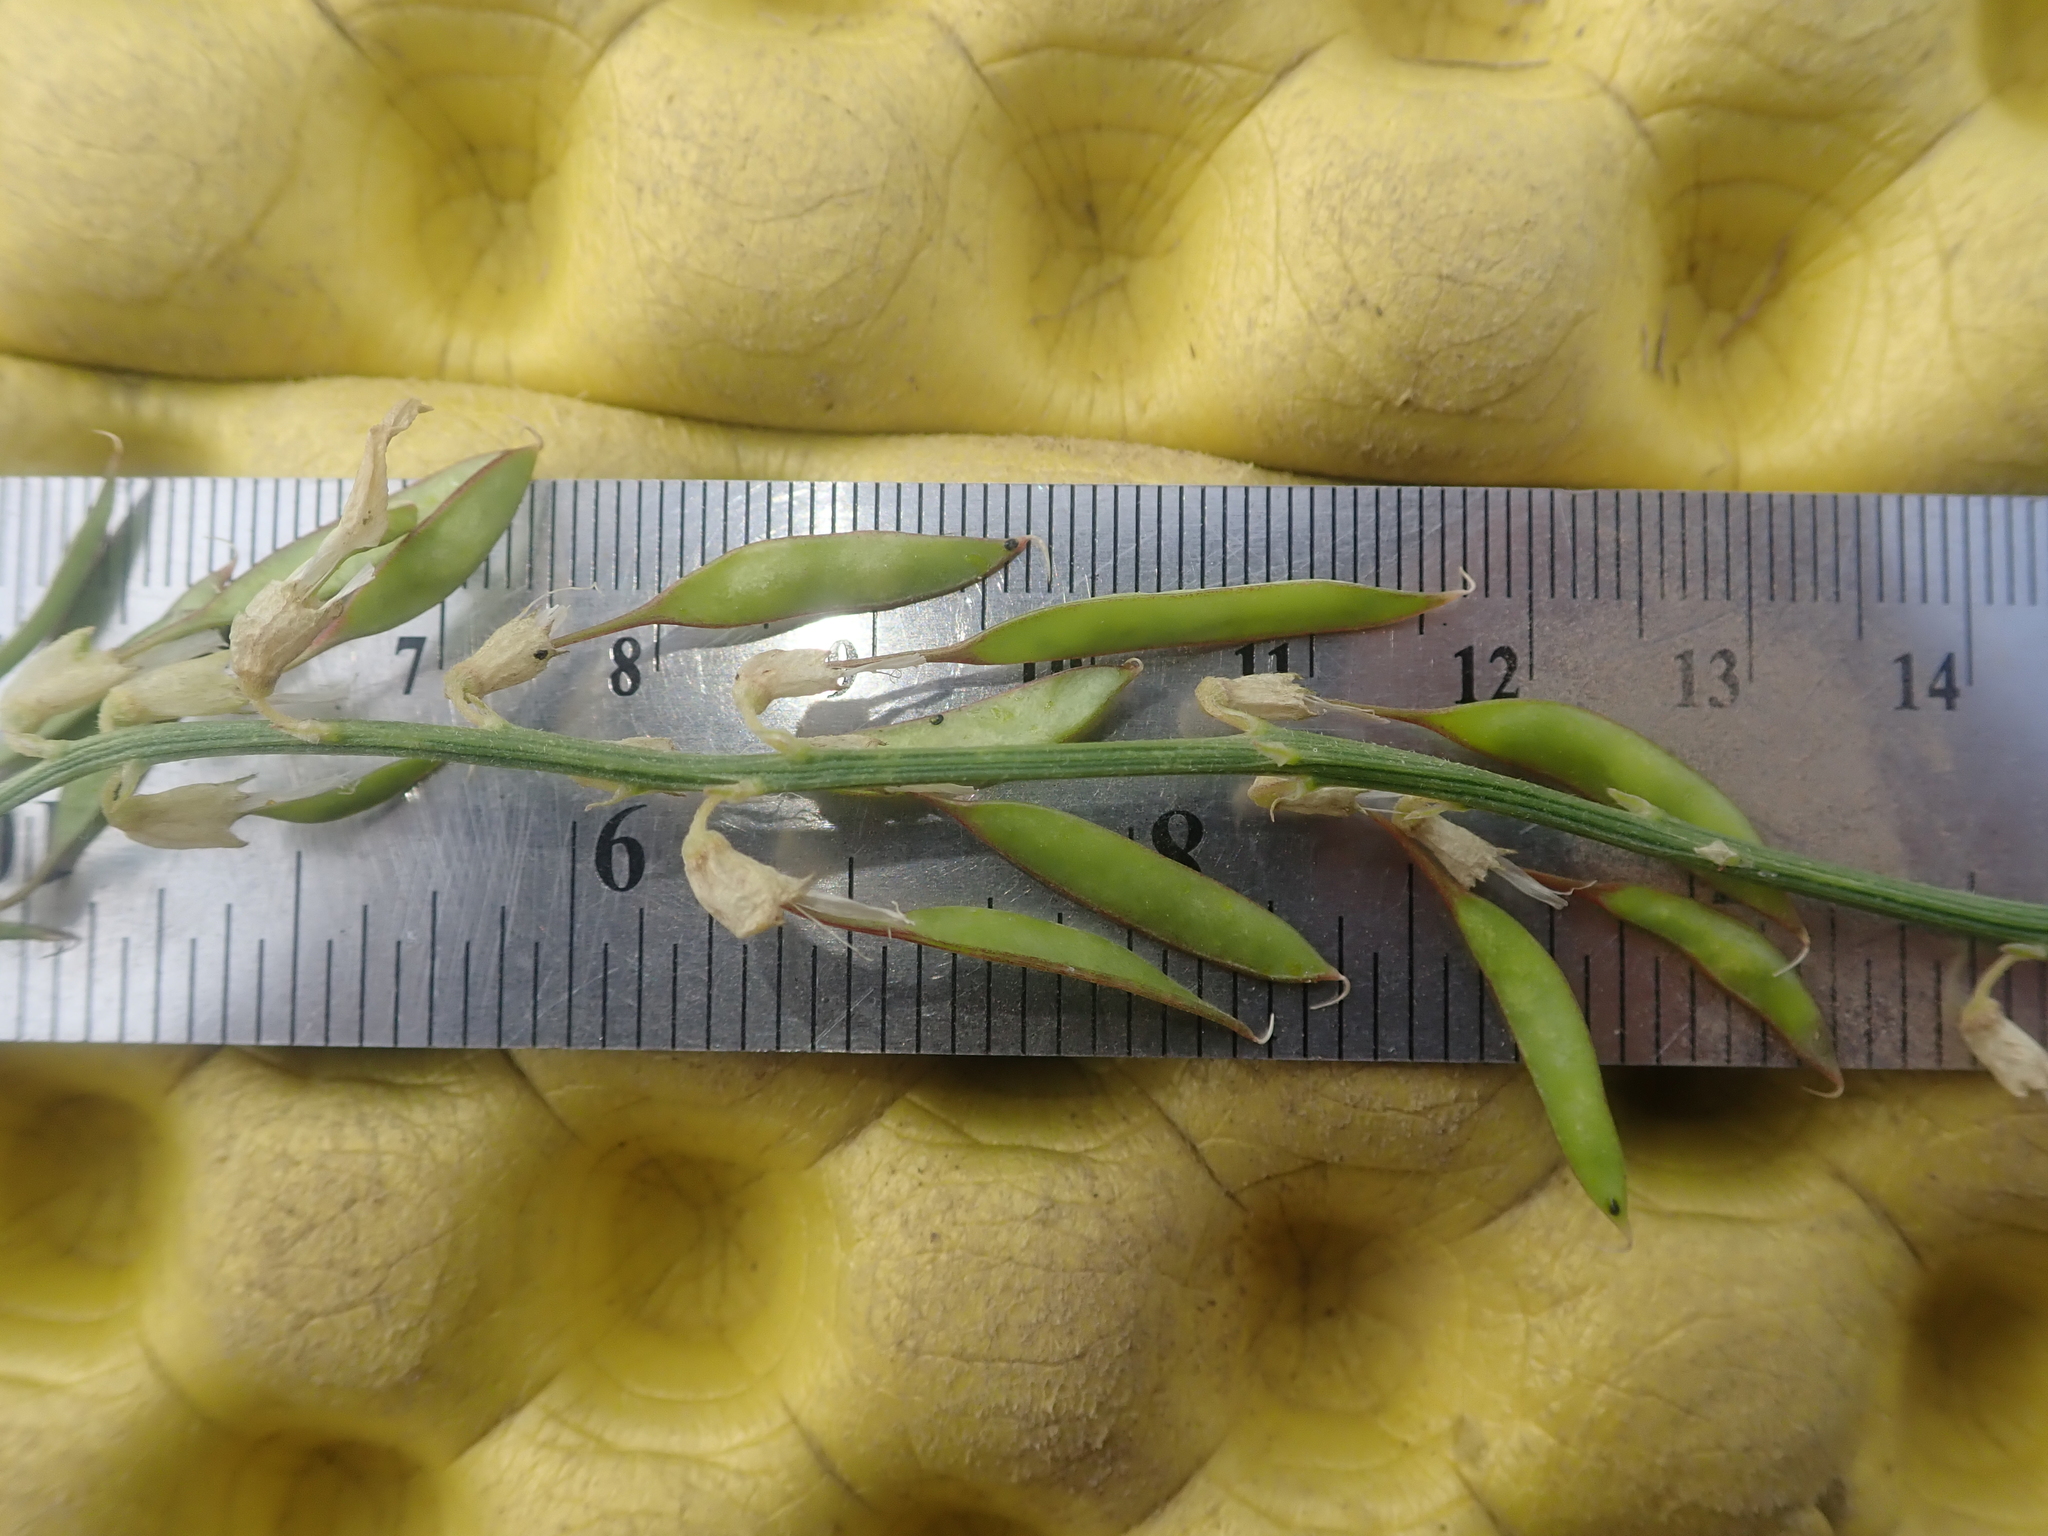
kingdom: Plantae
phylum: Tracheophyta
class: Magnoliopsida
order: Fabales
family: Fabaceae
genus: Astragalus
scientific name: Astragalus filipes
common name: Basalt milk-vetch
